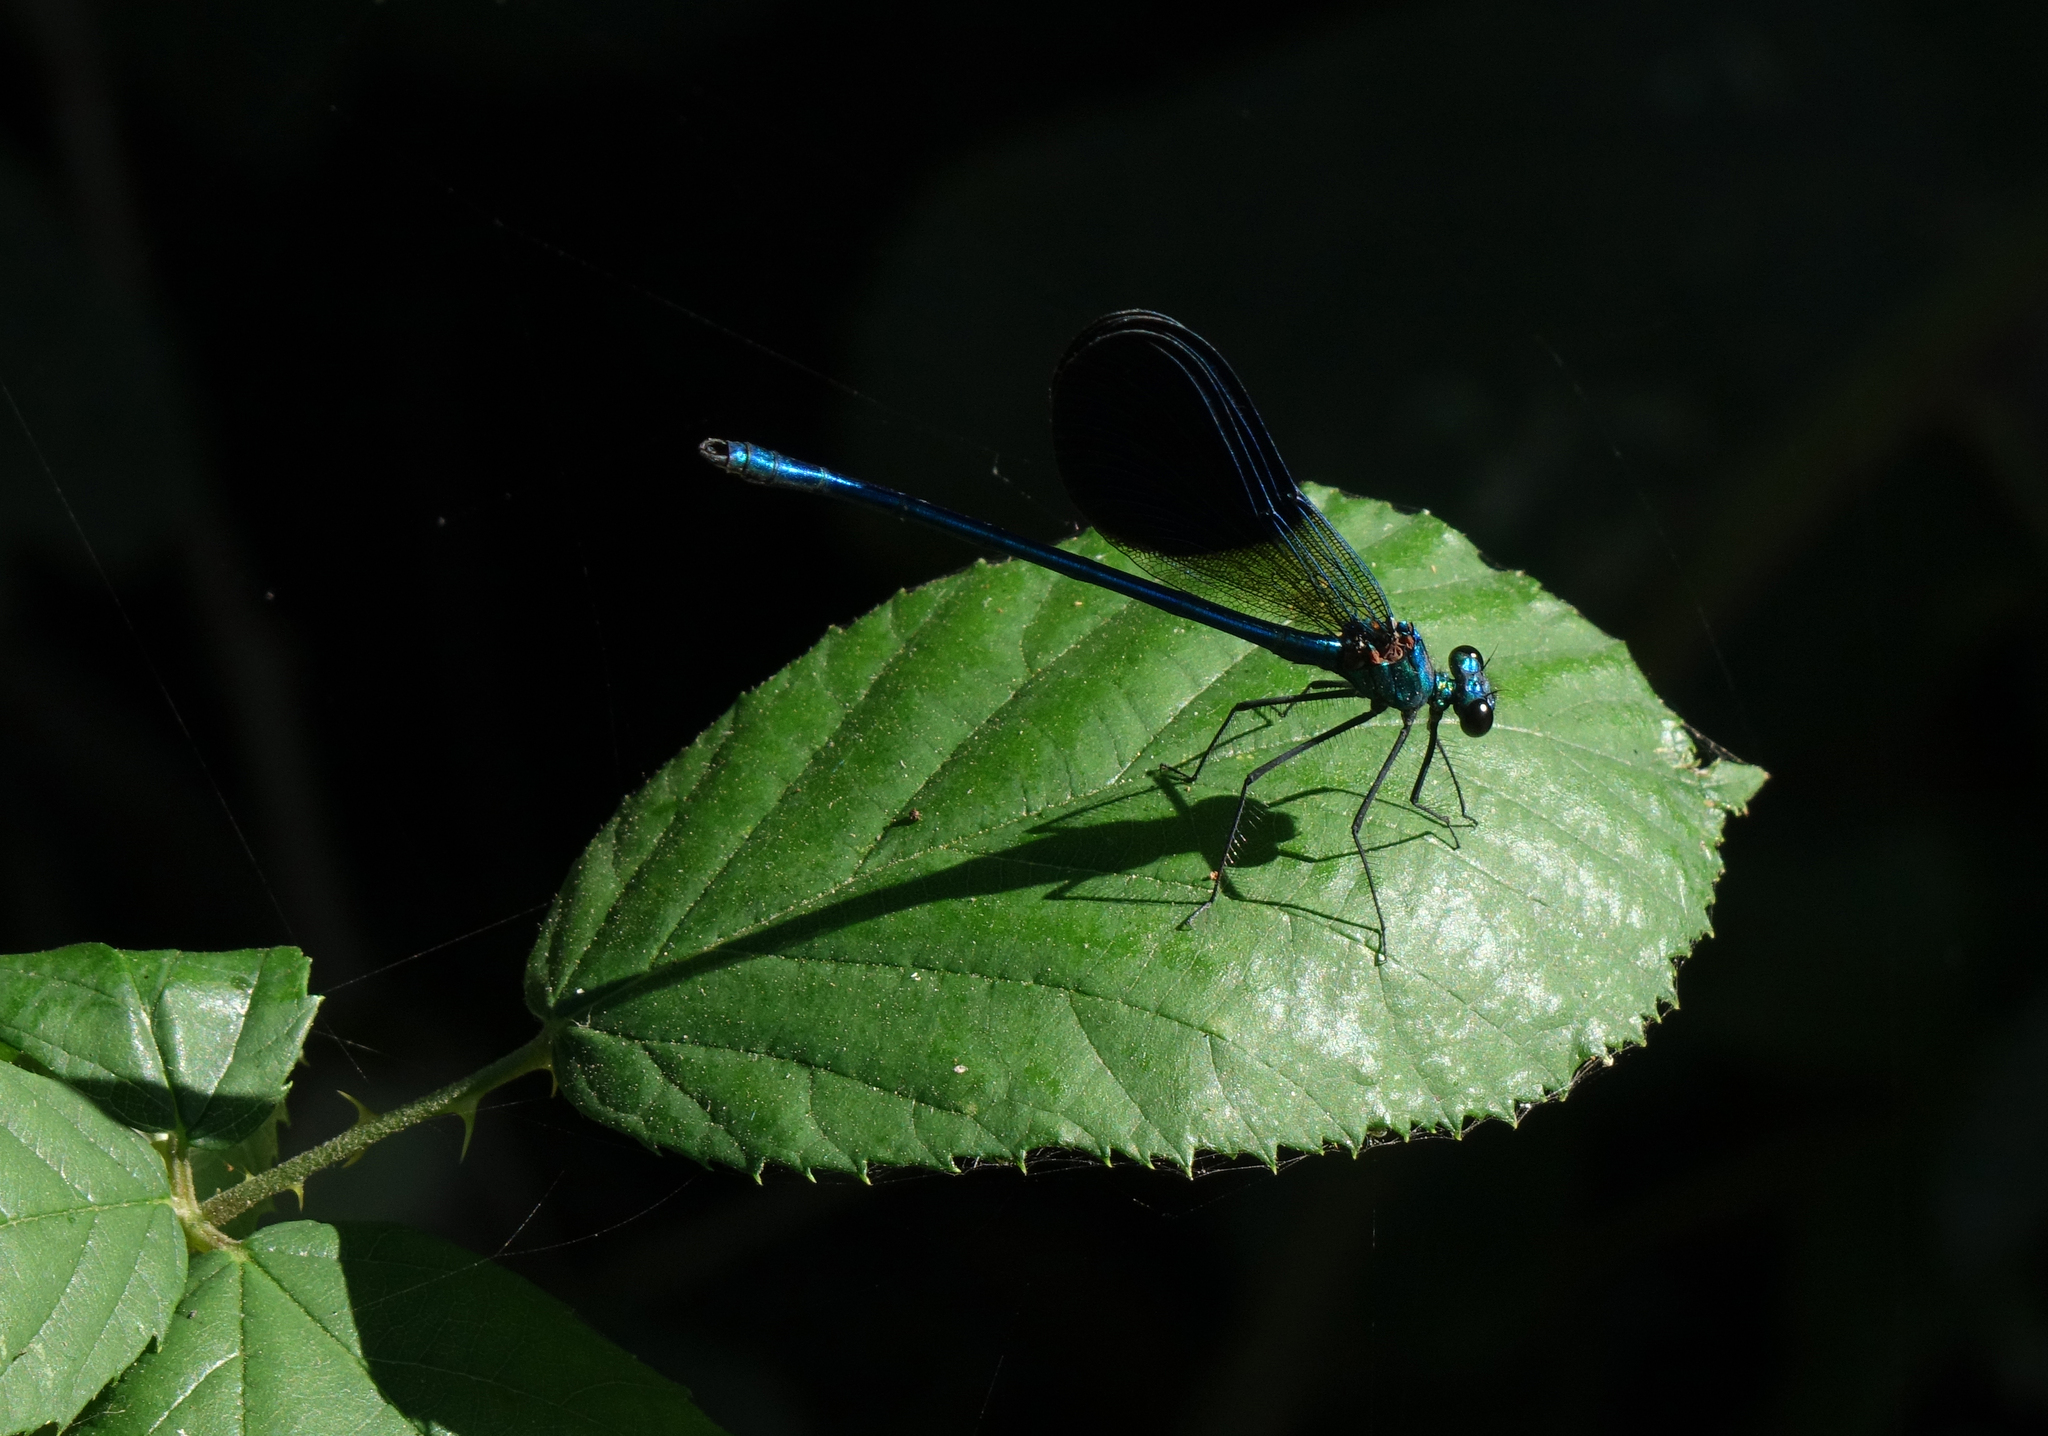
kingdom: Animalia
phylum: Arthropoda
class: Insecta
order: Odonata
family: Calopterygidae
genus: Calopteryx
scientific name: Calopteryx splendens
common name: Banded demoiselle
